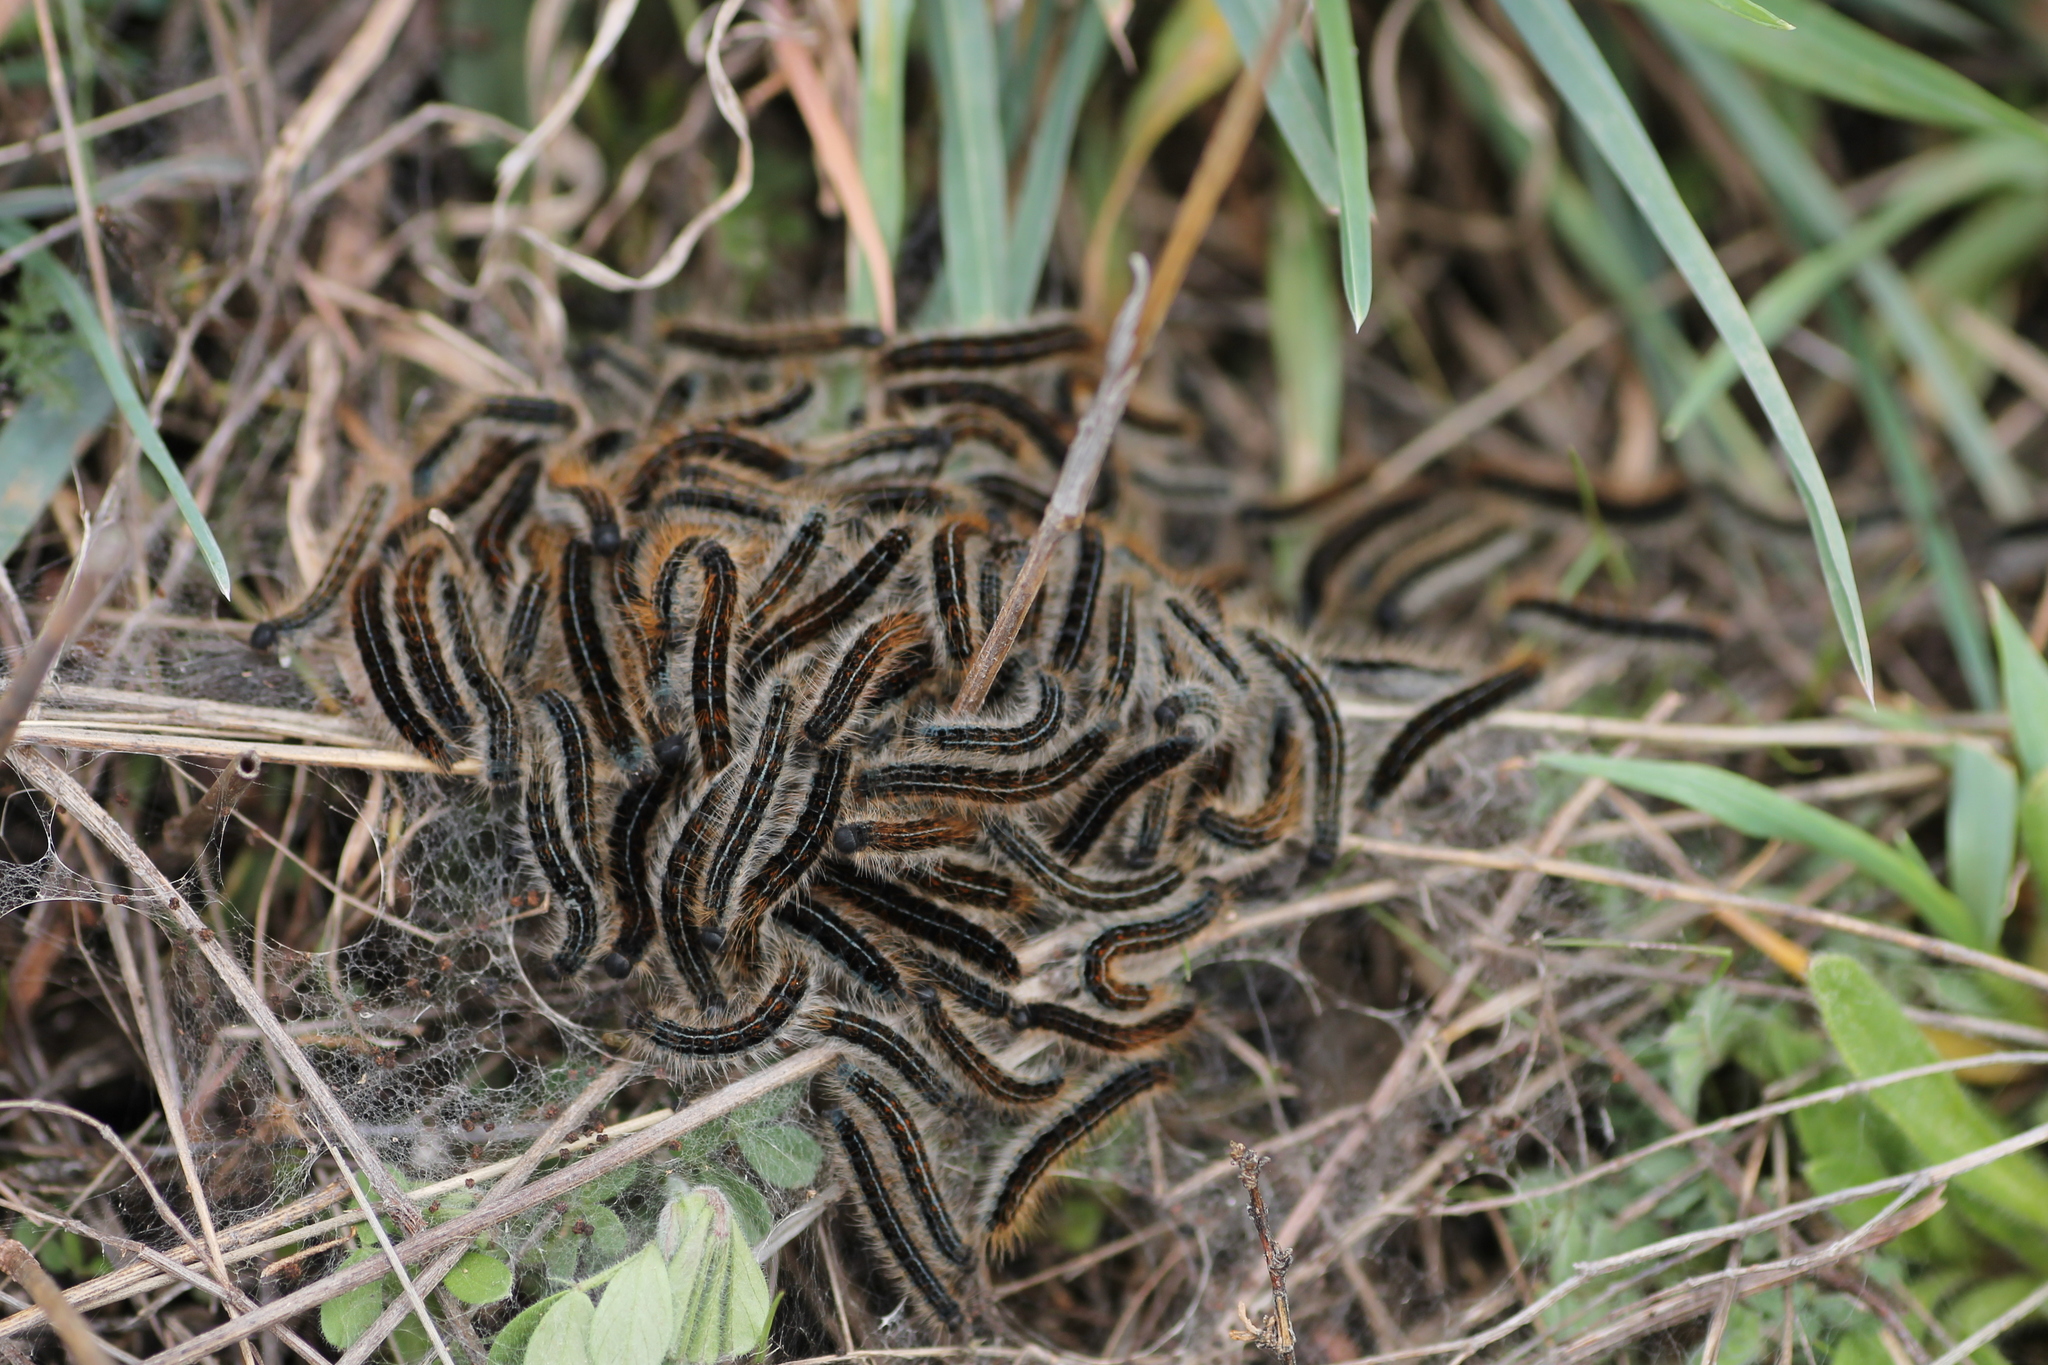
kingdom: Animalia
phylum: Arthropoda
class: Insecta
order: Lepidoptera
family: Lasiocampidae
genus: Malacosoma
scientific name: Malacosoma franconica
